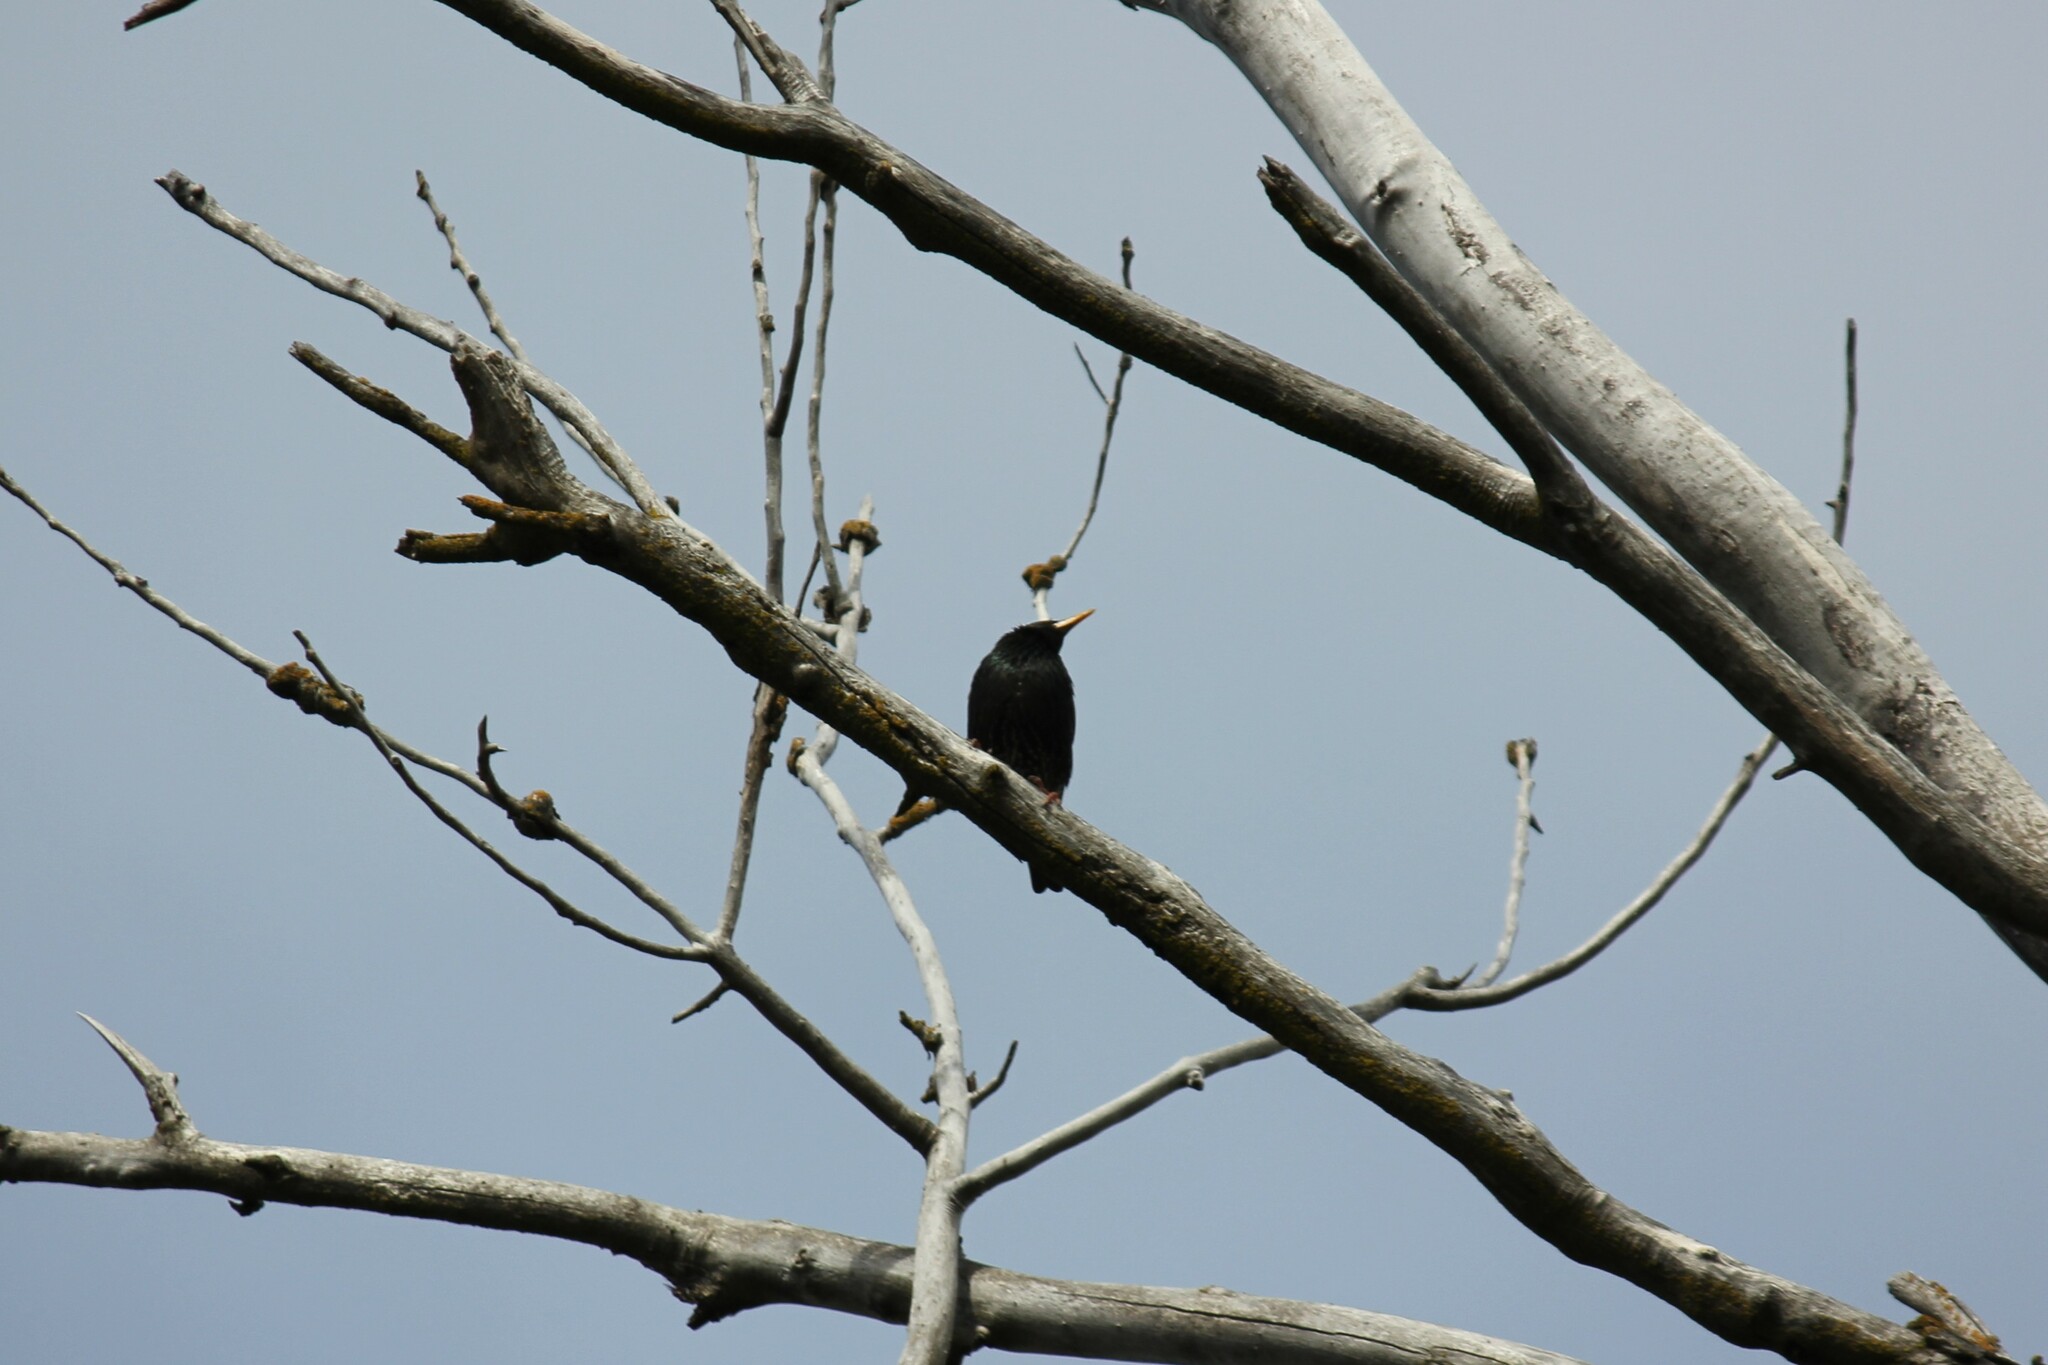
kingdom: Animalia
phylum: Chordata
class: Aves
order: Passeriformes
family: Sturnidae
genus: Sturnus
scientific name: Sturnus vulgaris
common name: Common starling
